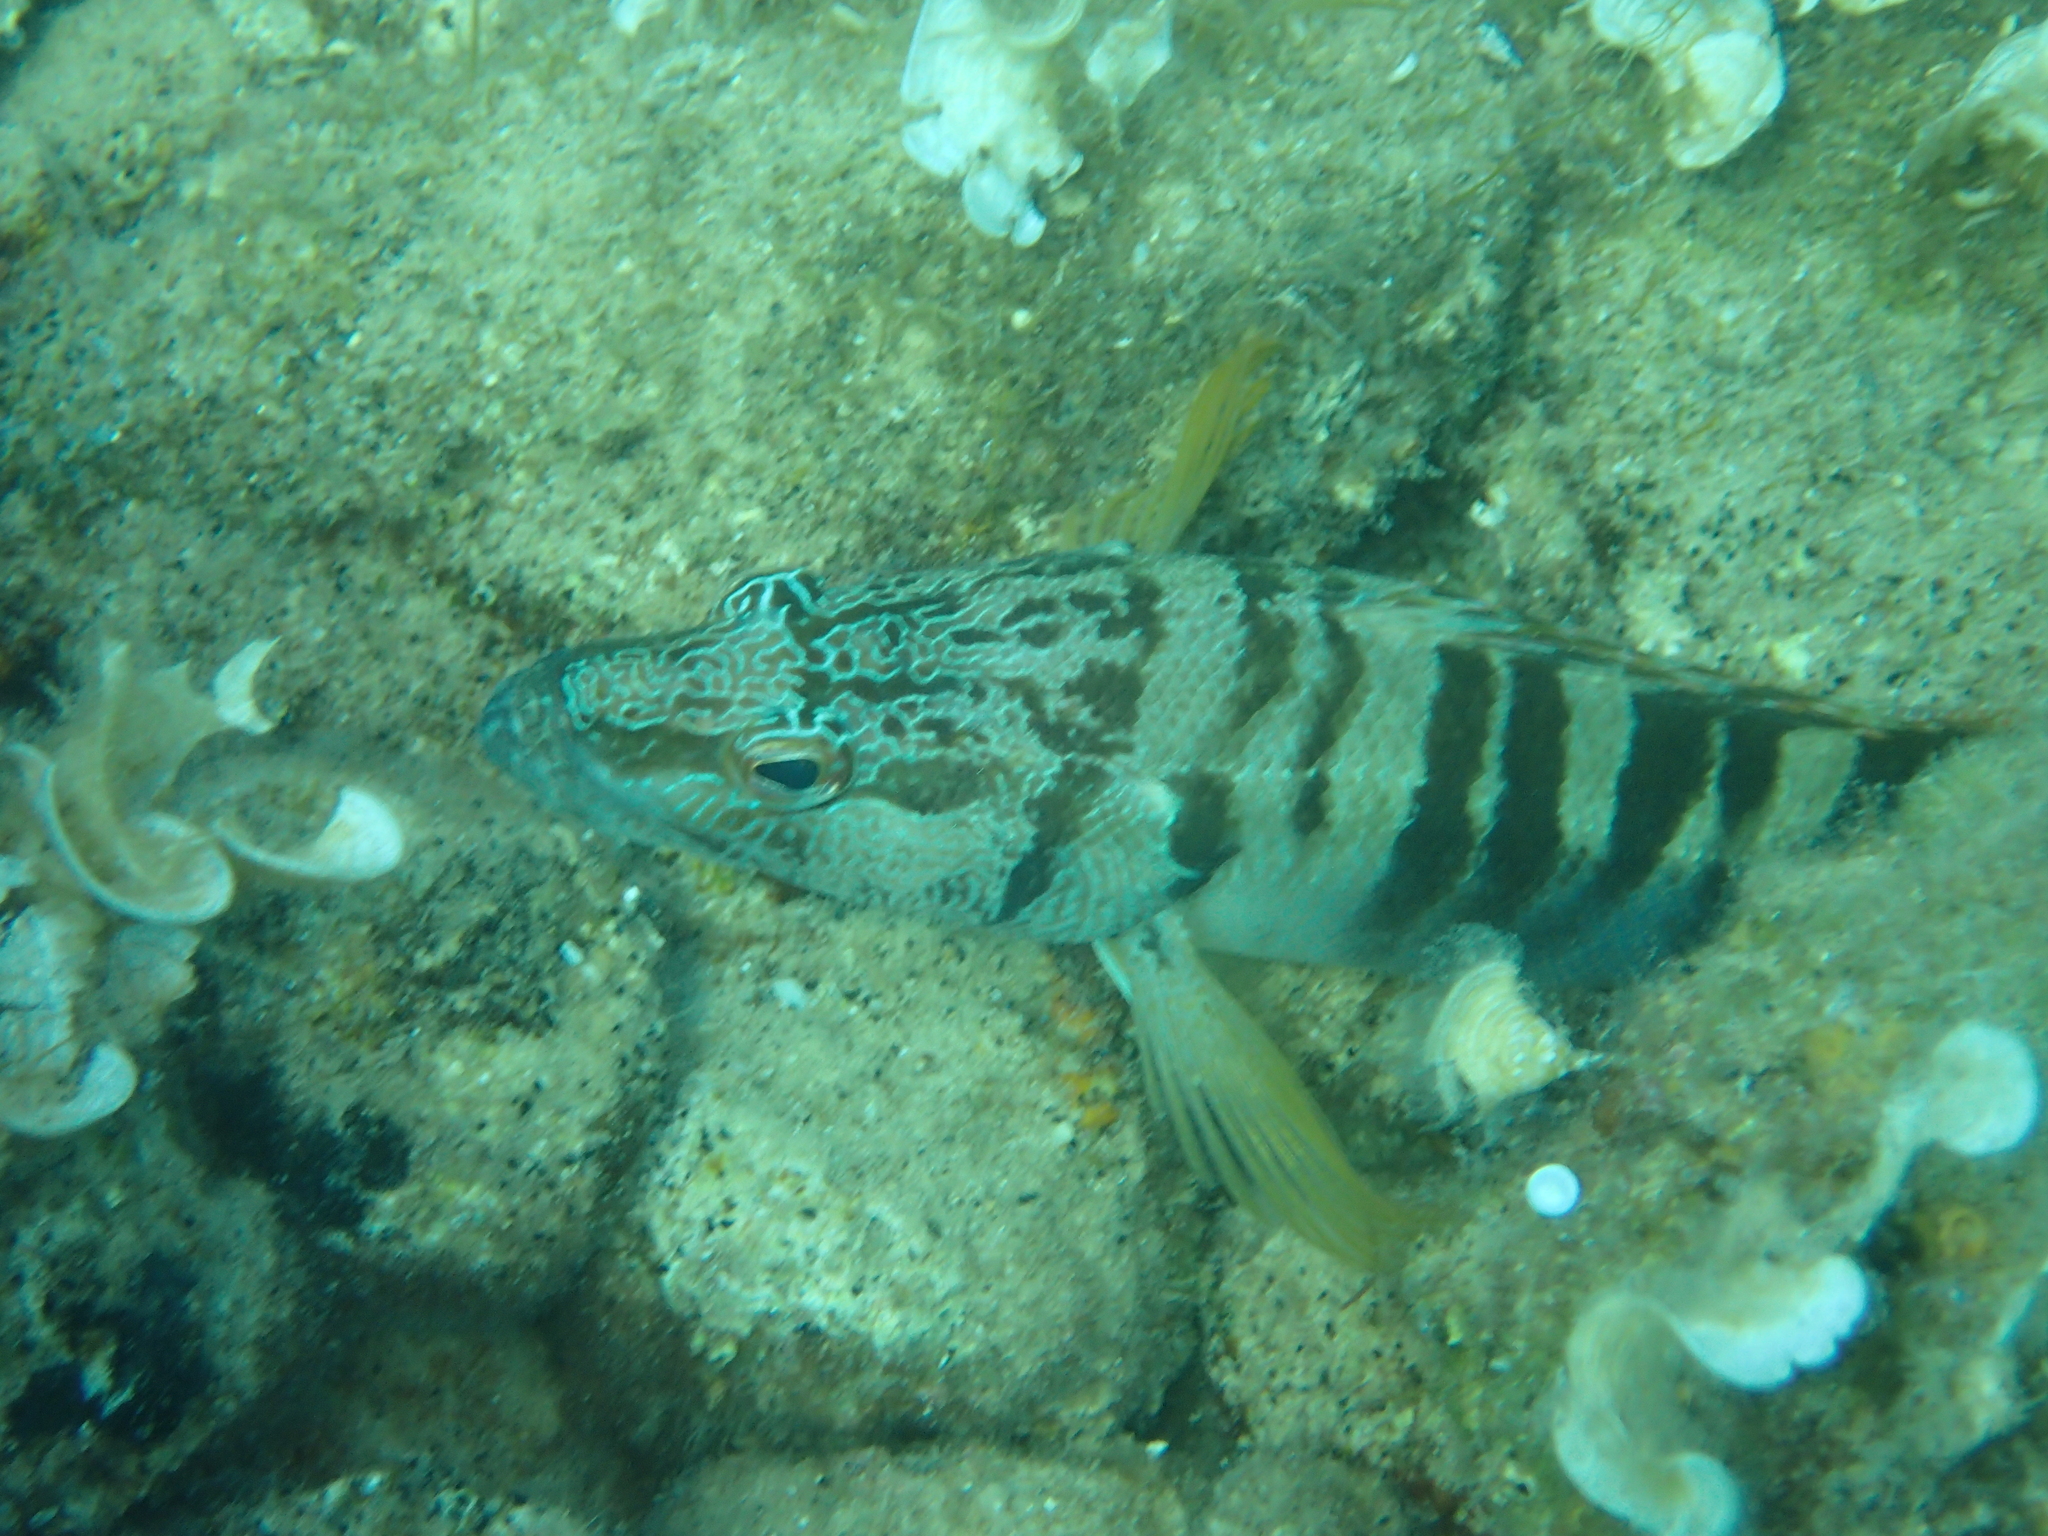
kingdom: Animalia
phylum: Chordata
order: Perciformes
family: Serranidae
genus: Serranus
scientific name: Serranus scriba
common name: Painted comber
